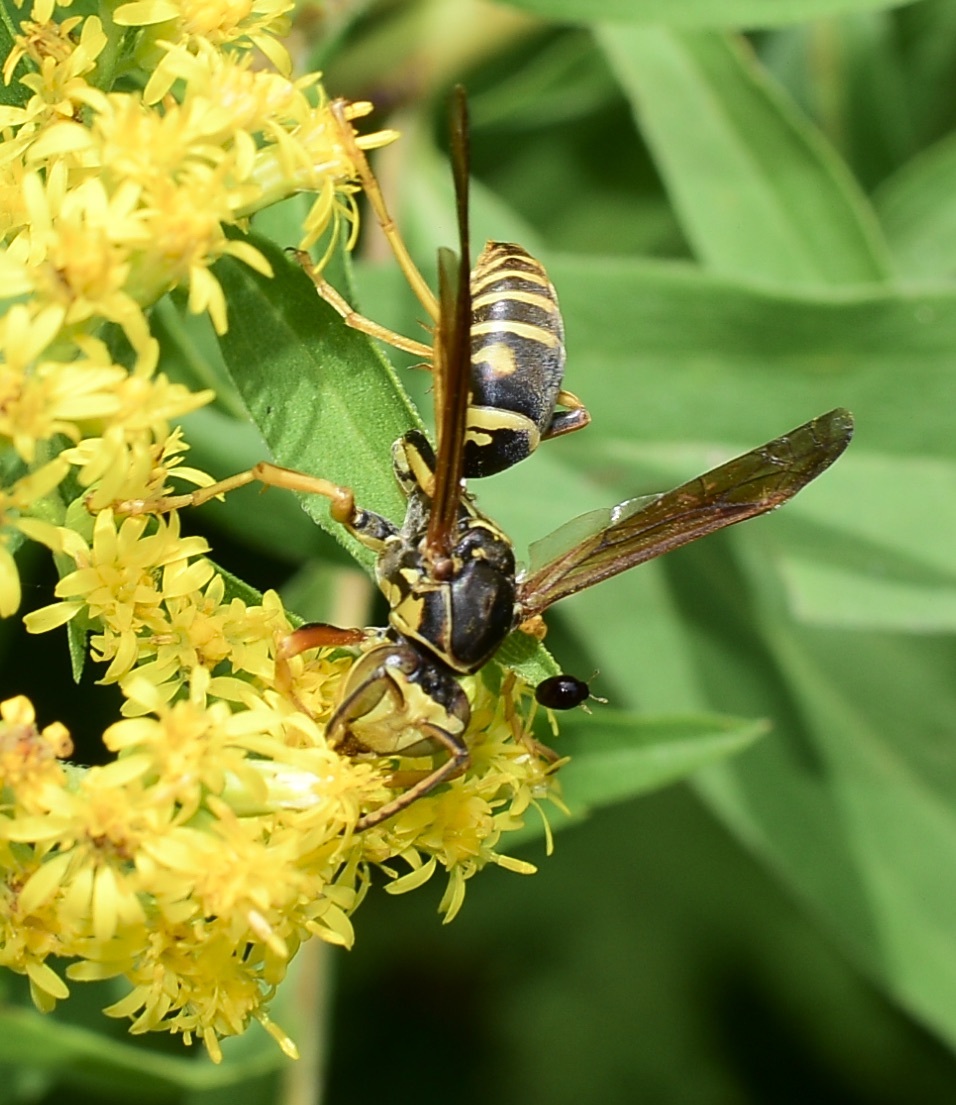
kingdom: Animalia
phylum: Arthropoda
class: Insecta
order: Hymenoptera
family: Eumenidae
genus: Polistes
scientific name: Polistes fuscatus
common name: Dark paper wasp
